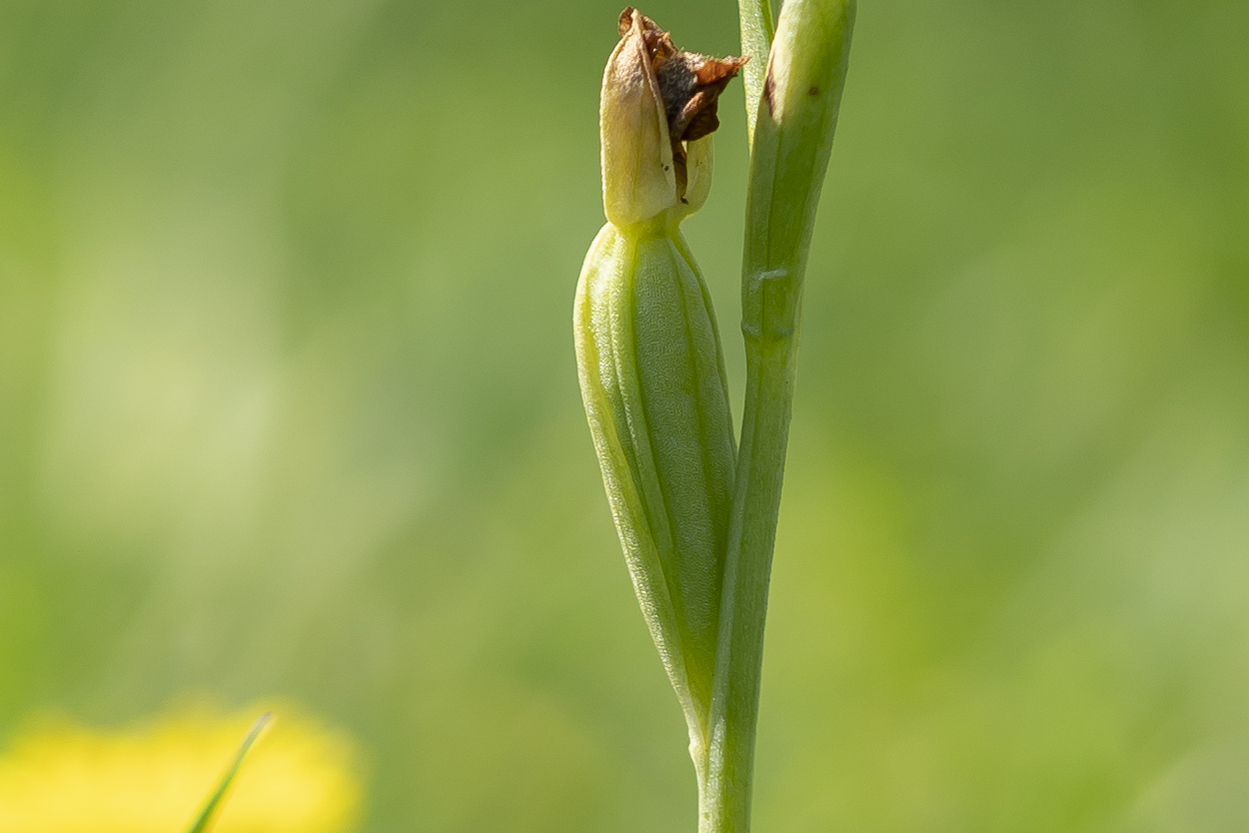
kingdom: Plantae
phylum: Tracheophyta
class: Liliopsida
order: Asparagales
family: Orchidaceae
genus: Ophrys
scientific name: Ophrys lutea
